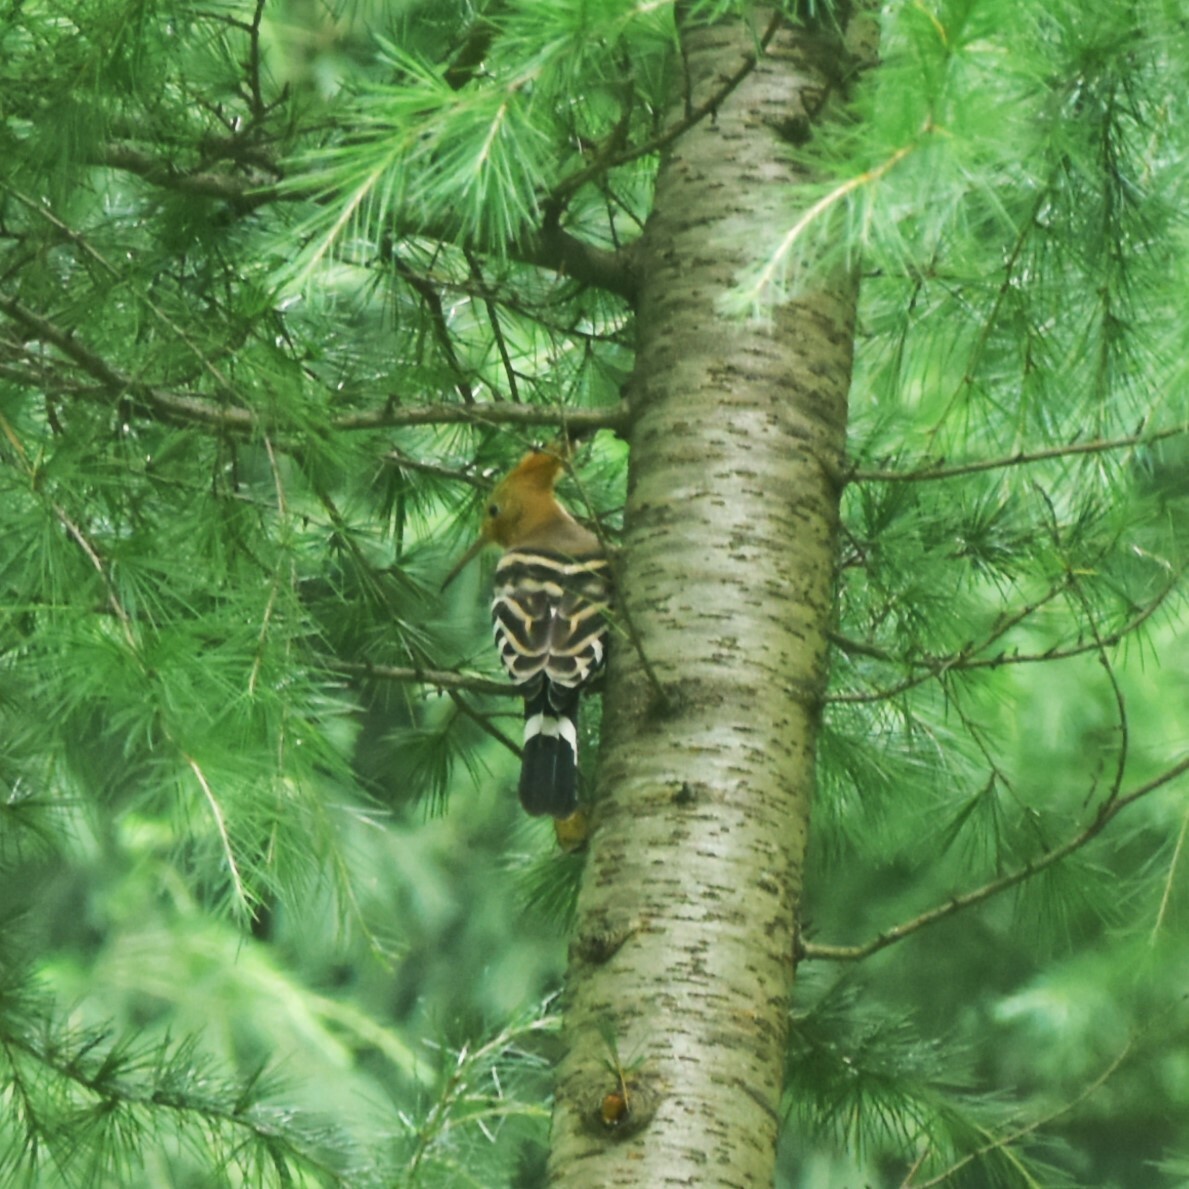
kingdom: Animalia
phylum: Chordata
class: Aves
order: Bucerotiformes
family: Upupidae
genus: Upupa
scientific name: Upupa epops
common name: Eurasian hoopoe
